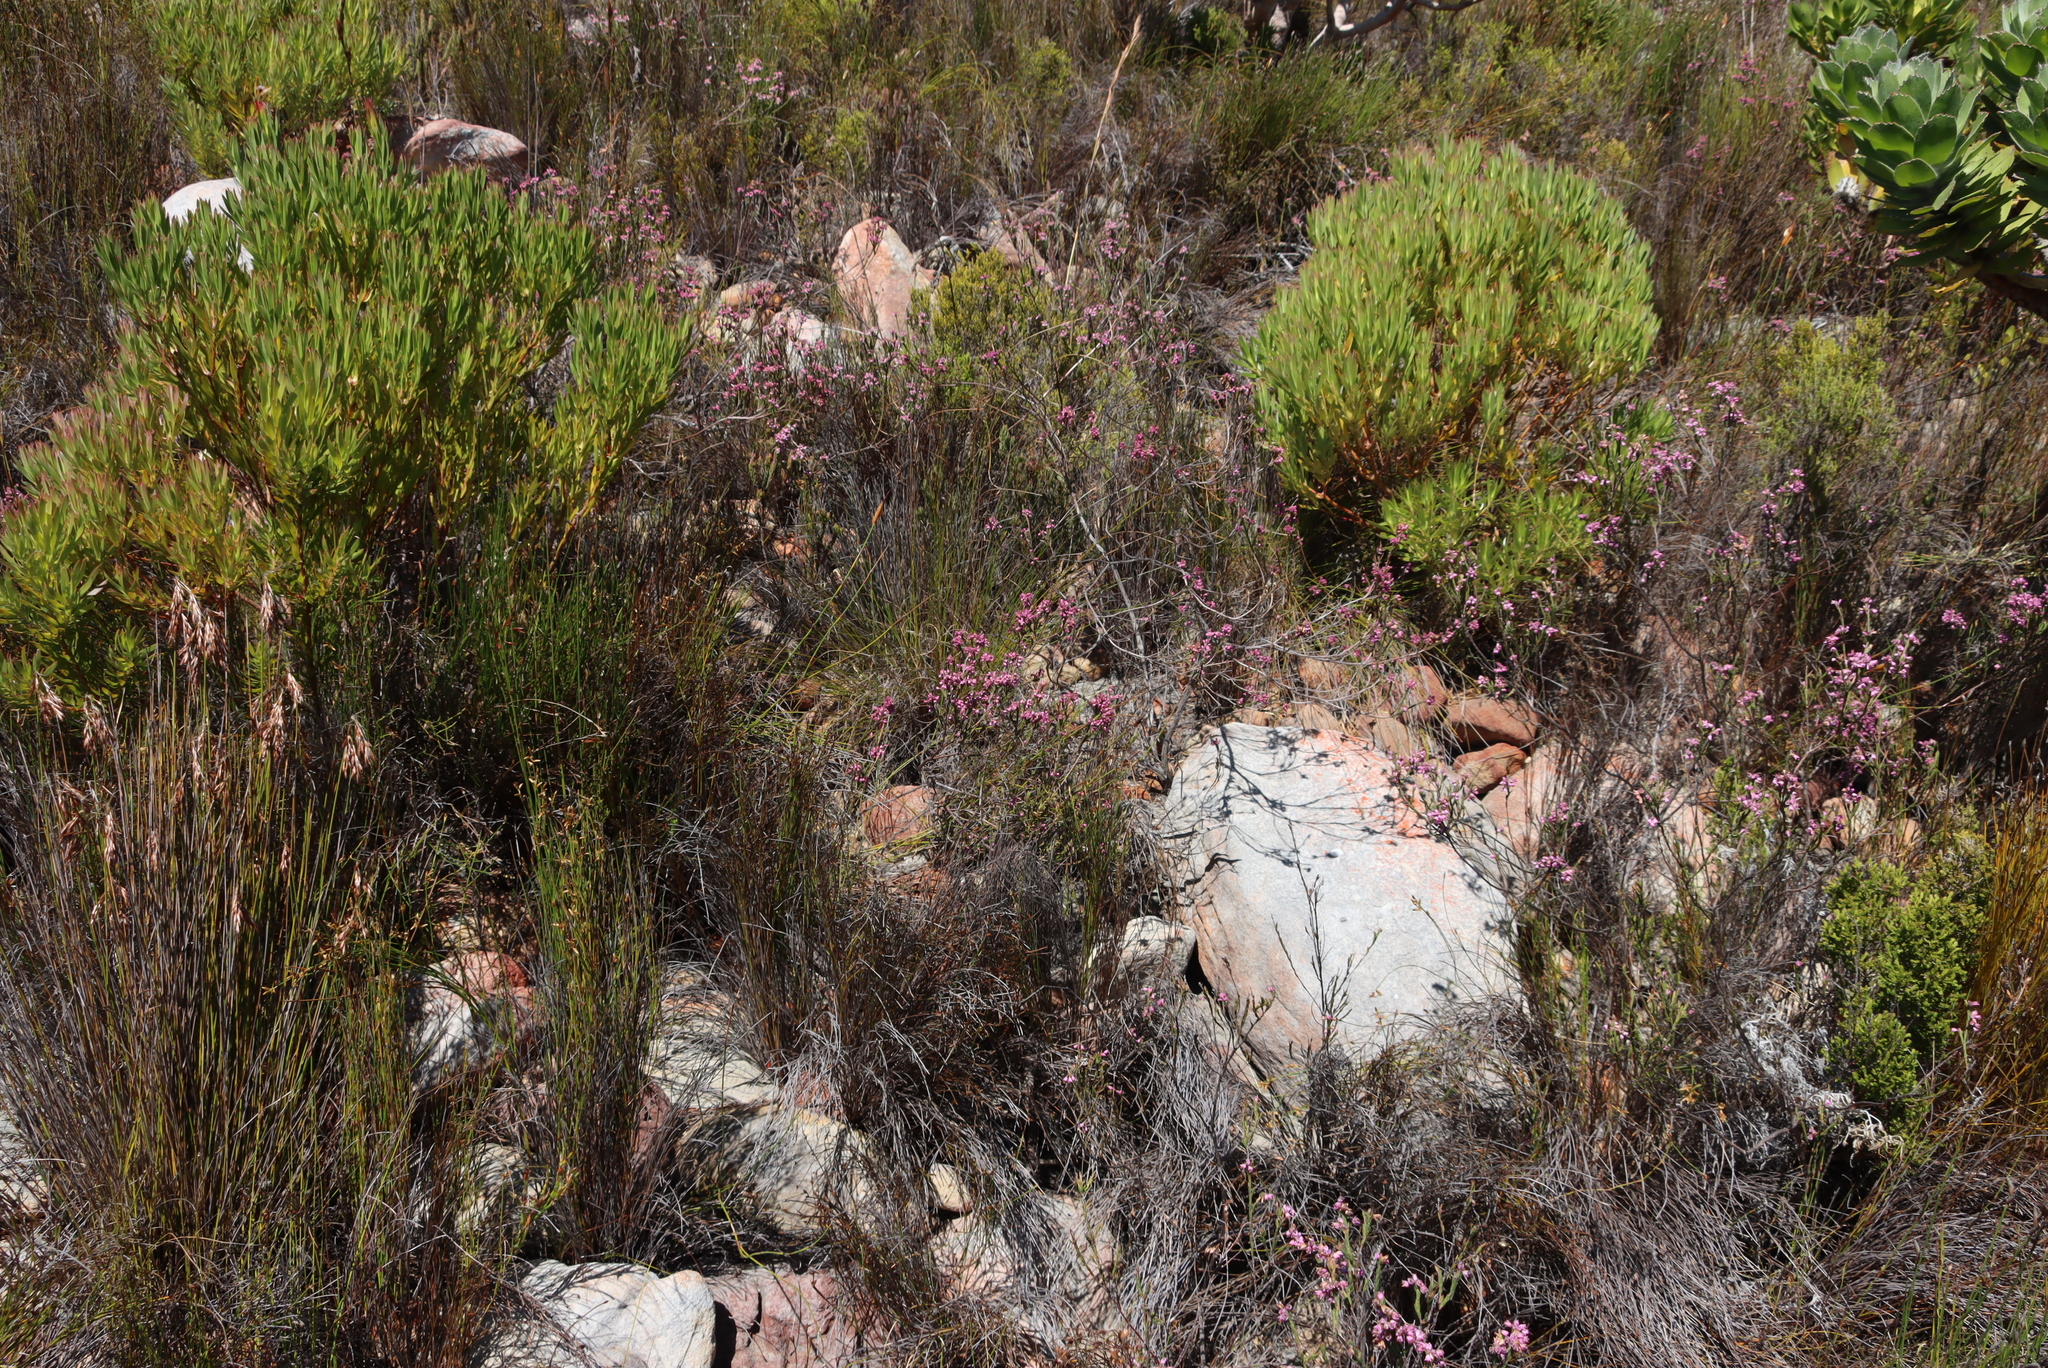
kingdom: Plantae
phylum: Tracheophyta
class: Magnoliopsida
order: Ericales
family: Ericaceae
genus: Erica
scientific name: Erica corifolia
